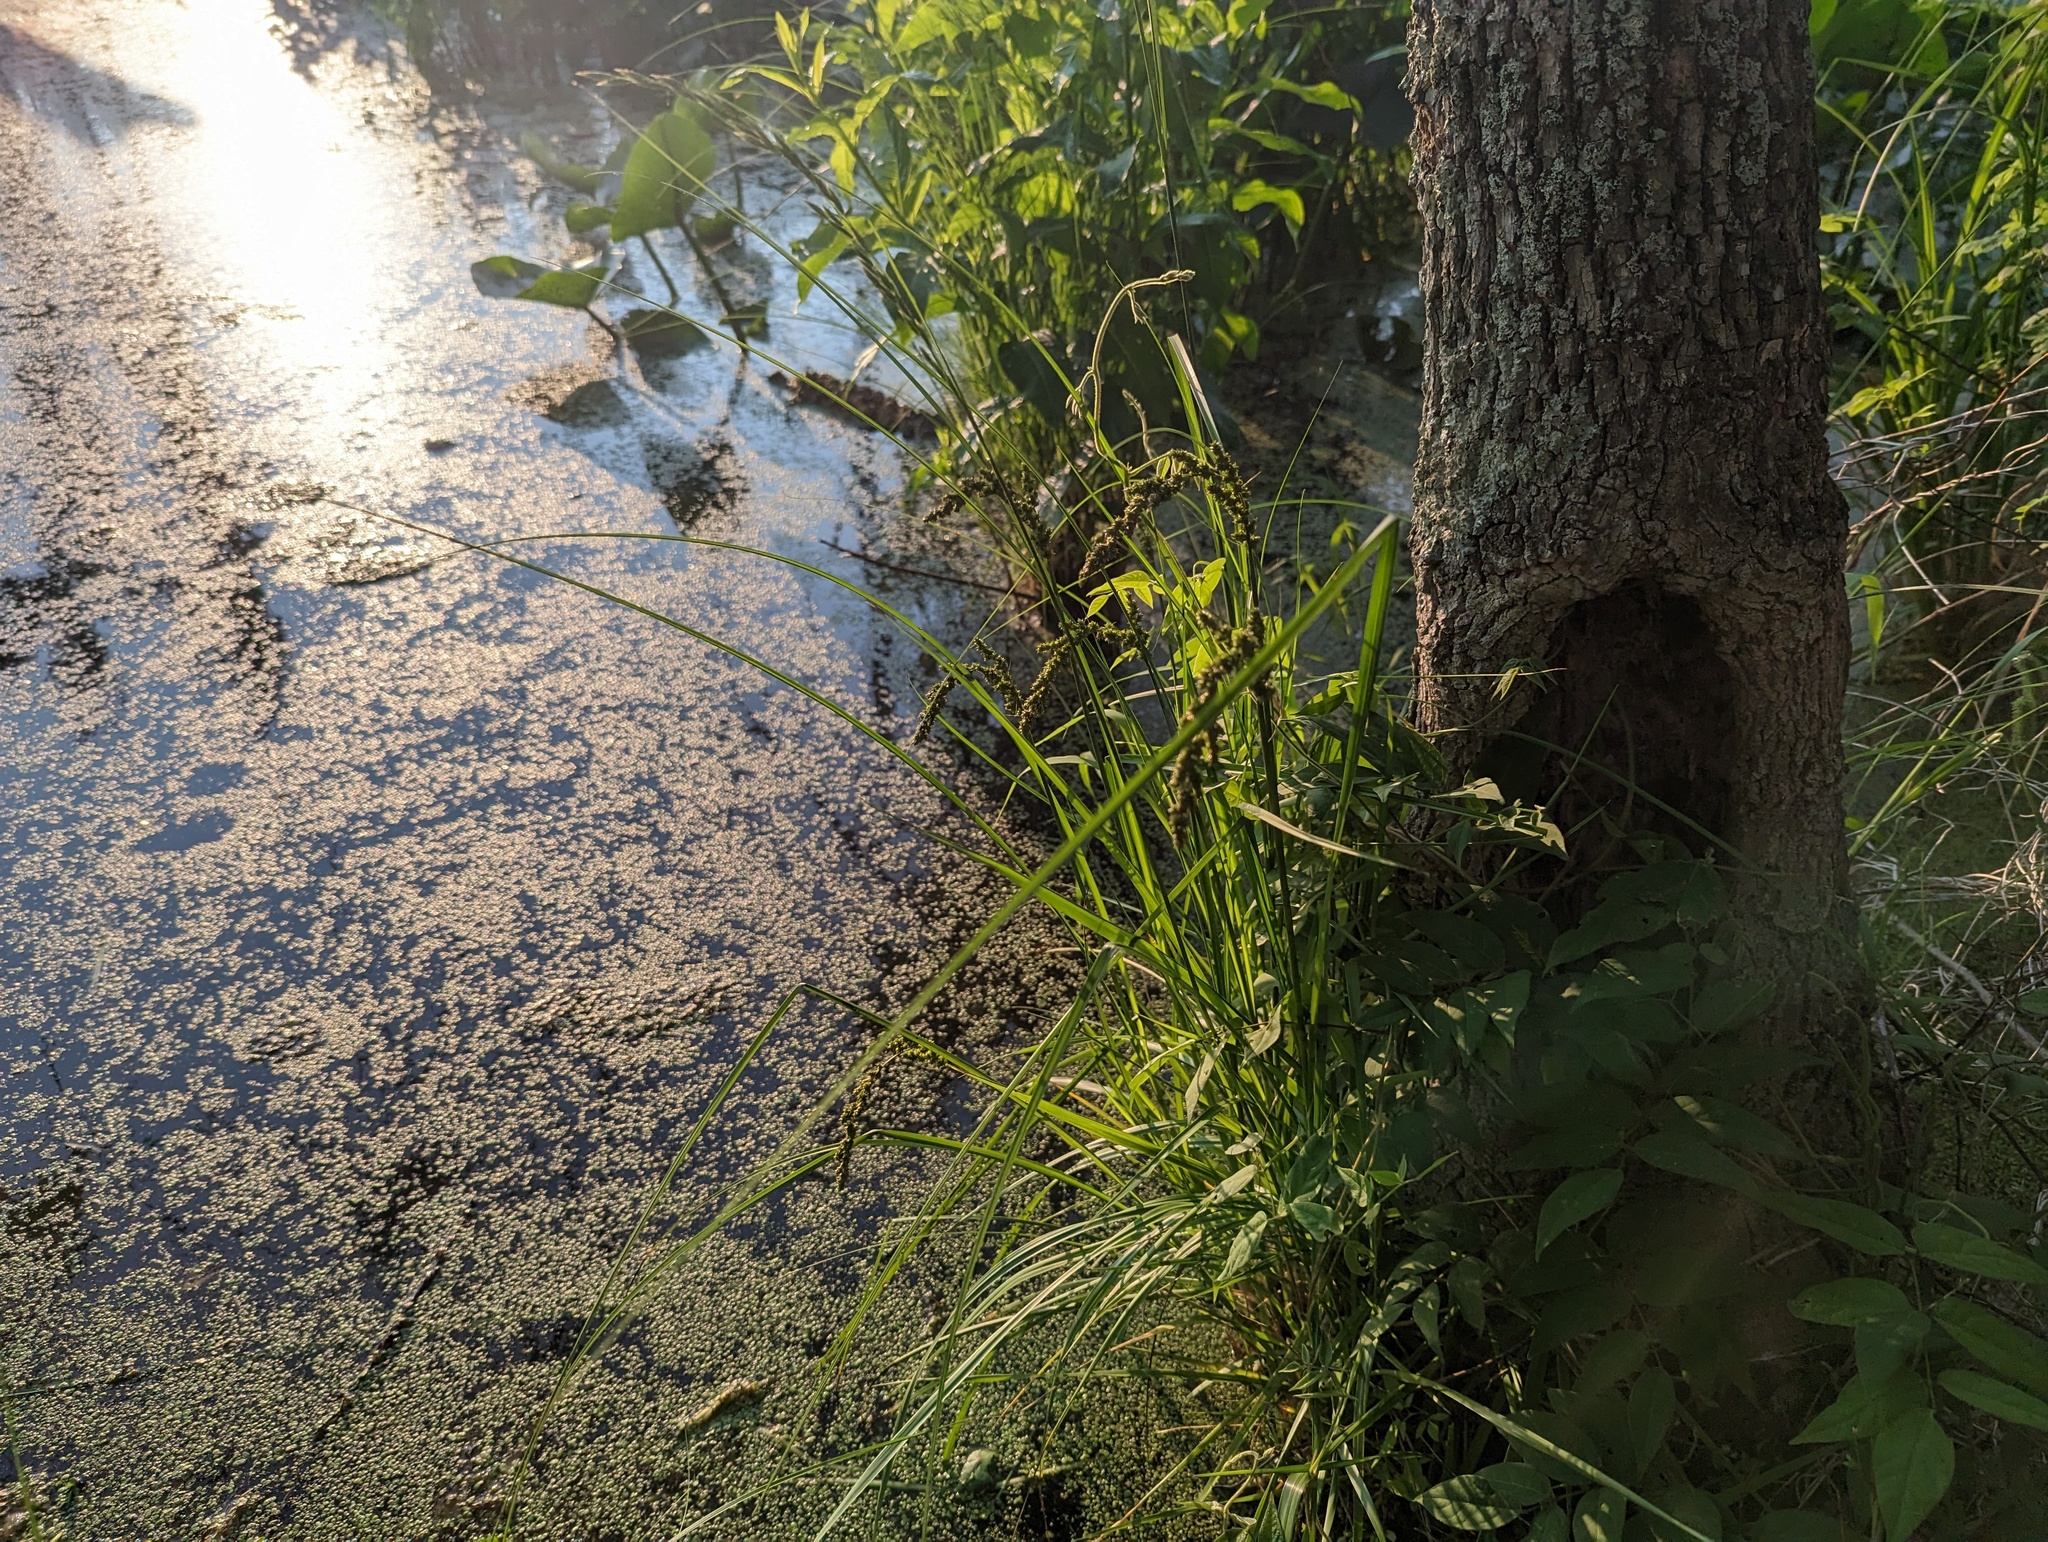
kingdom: Plantae
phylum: Tracheophyta
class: Liliopsida
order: Poales
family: Cyperaceae
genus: Carex
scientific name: Carex decomposita
